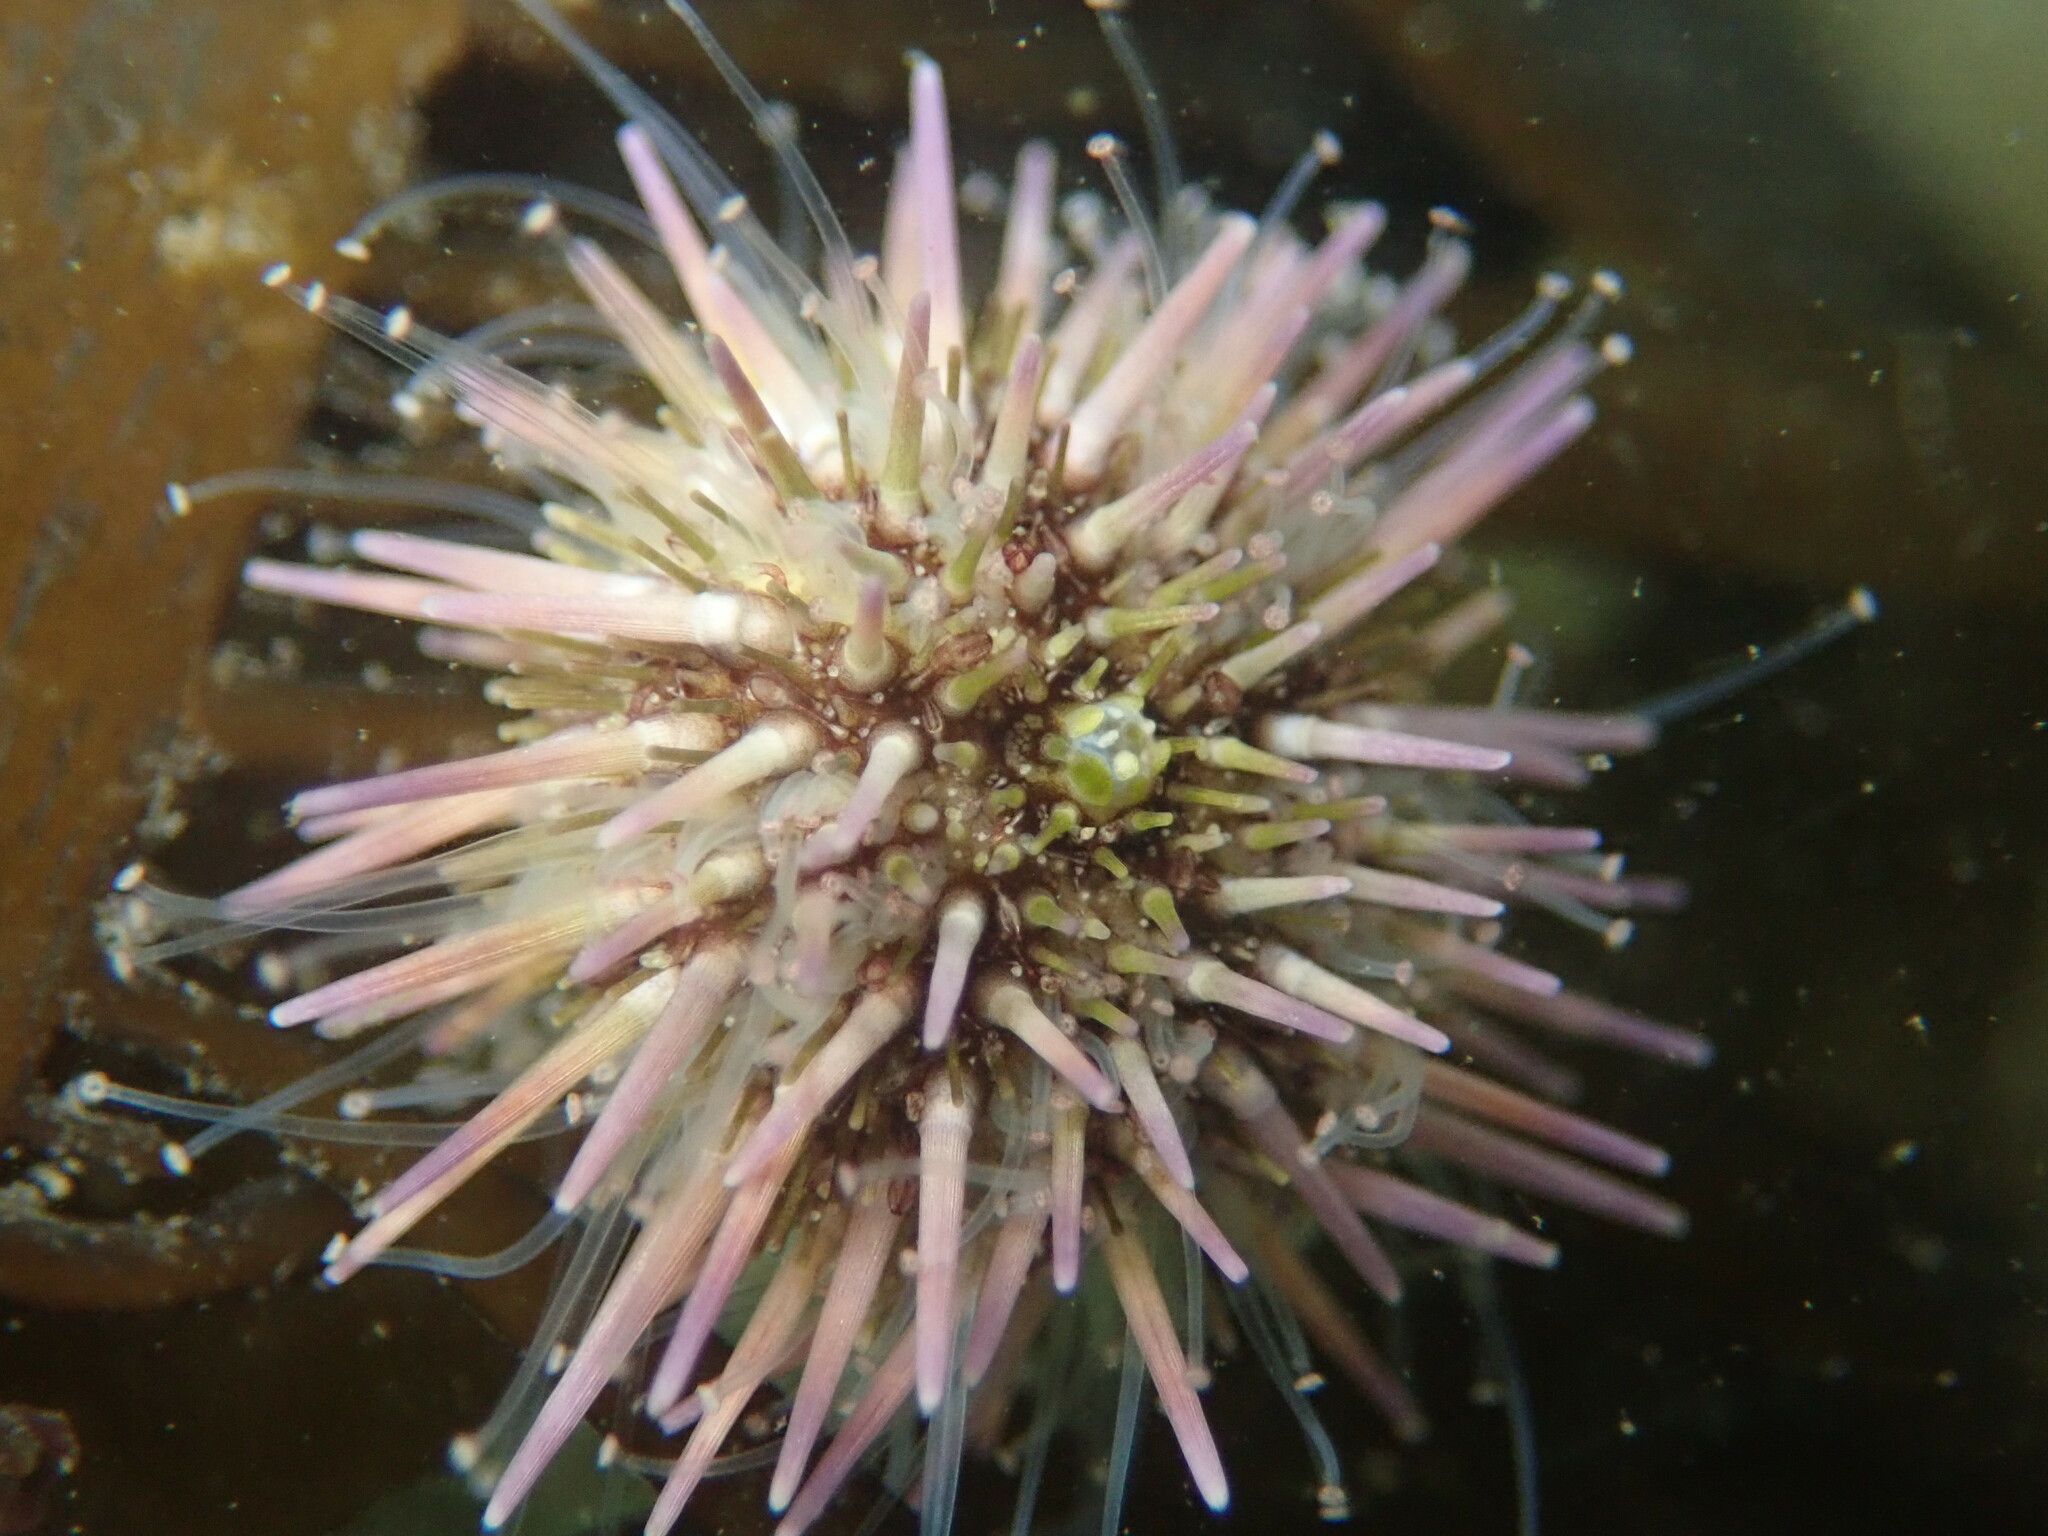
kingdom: Animalia
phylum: Echinodermata
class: Echinoidea
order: Camarodonta
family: Strongylocentrotidae
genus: Strongylocentrotus
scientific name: Strongylocentrotus purpuratus
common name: Purple sea urchin
